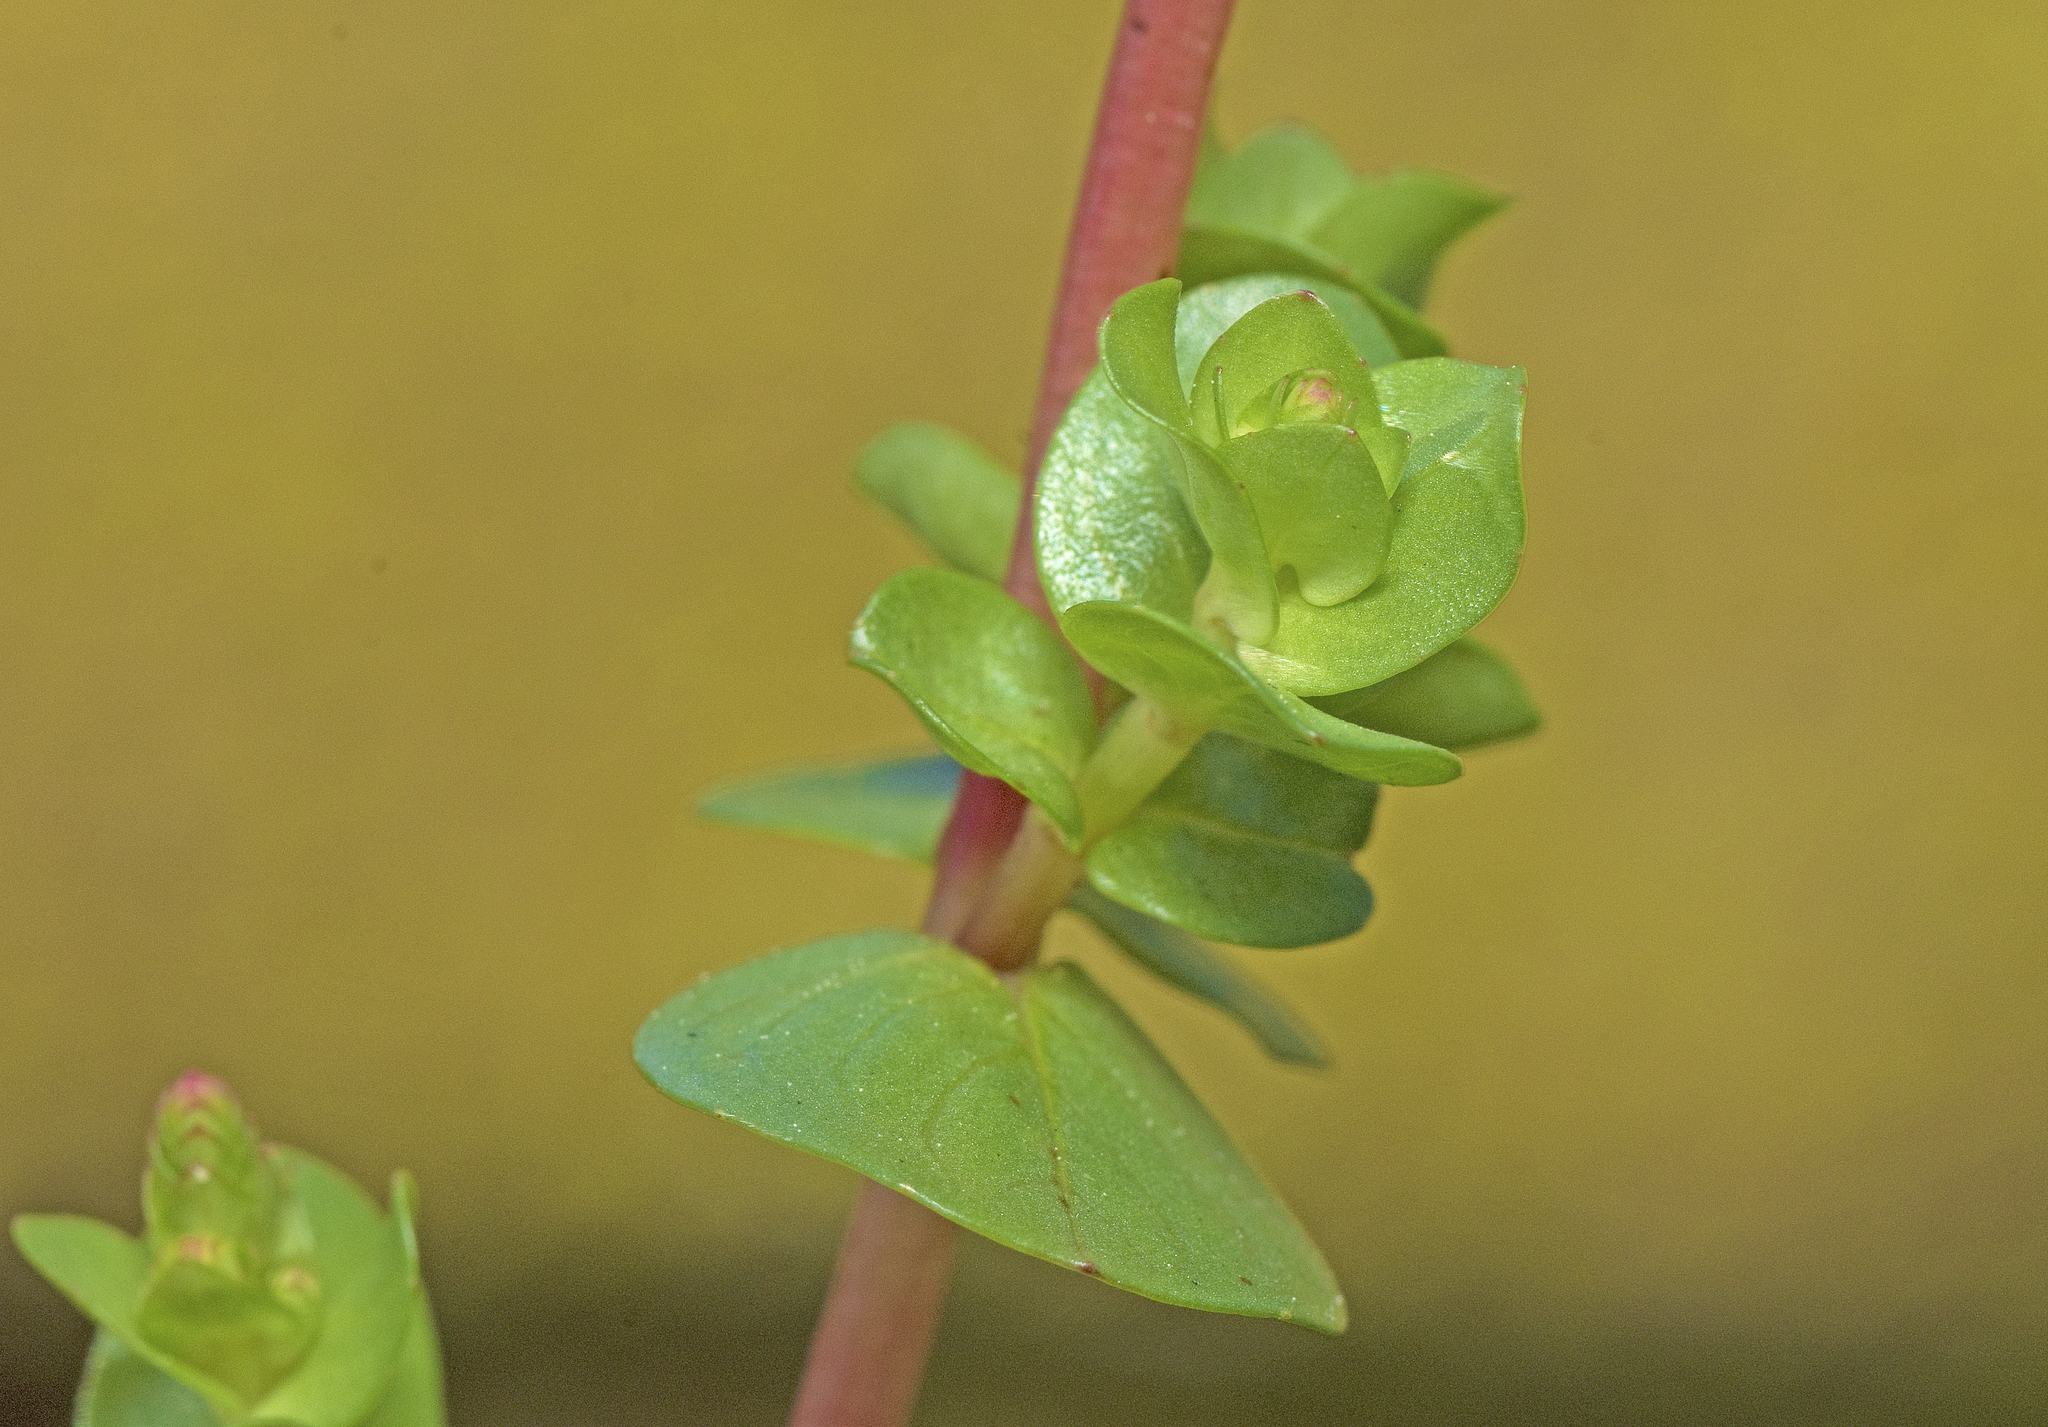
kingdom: Plantae
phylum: Tracheophyta
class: Magnoliopsida
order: Myrtales
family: Lythraceae
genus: Rotala
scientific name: Rotala rotundifolia
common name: Roundleaf toothcup
